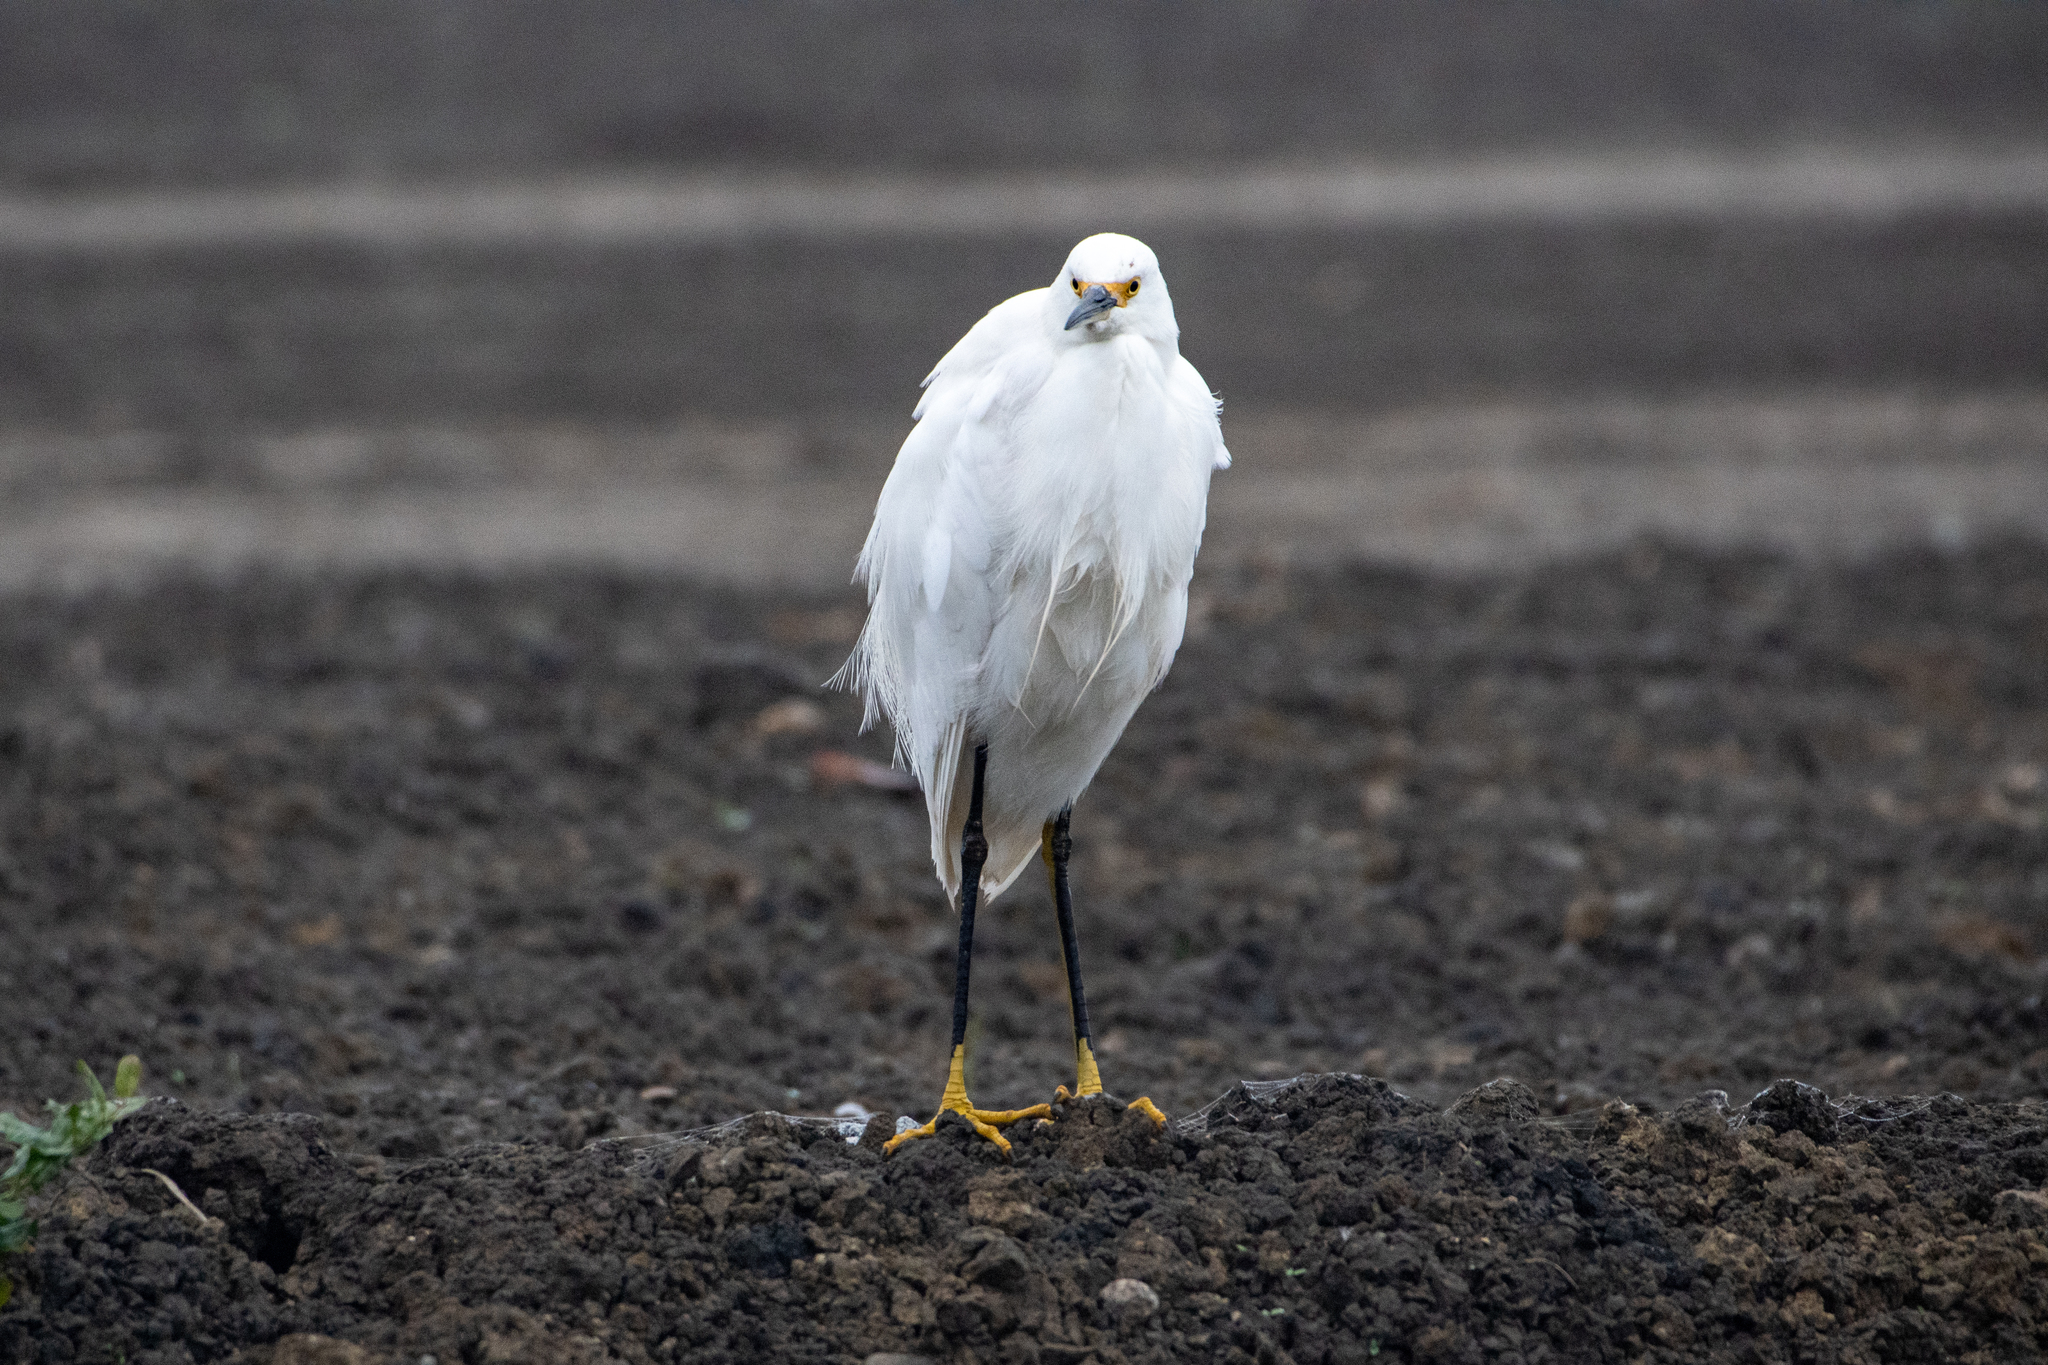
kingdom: Animalia
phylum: Chordata
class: Aves
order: Pelecaniformes
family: Ardeidae
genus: Egretta
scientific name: Egretta thula
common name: Snowy egret
